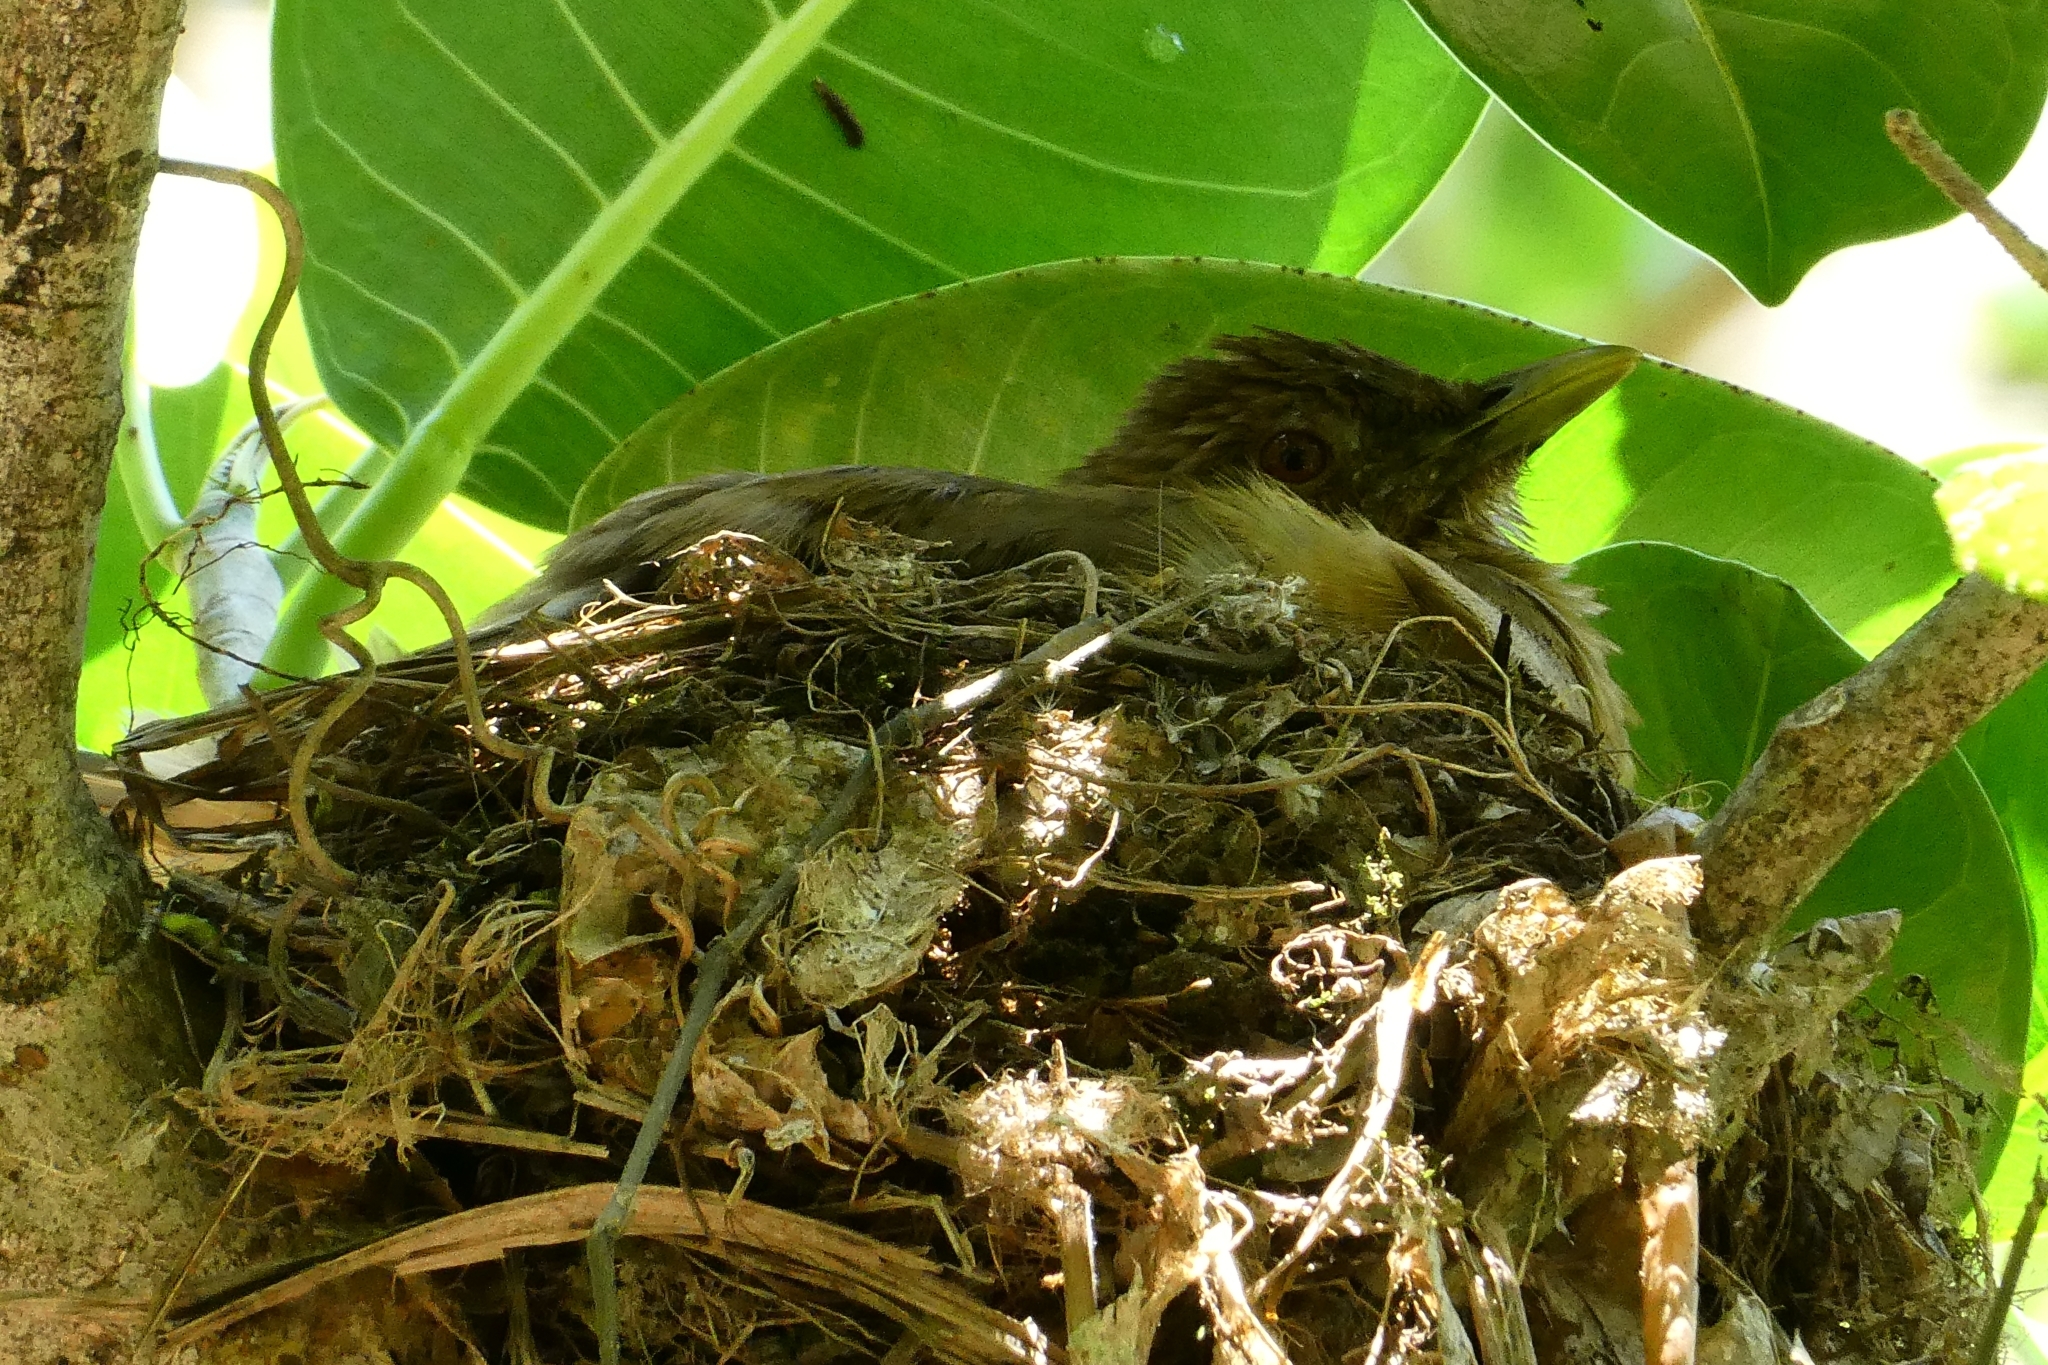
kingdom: Animalia
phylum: Chordata
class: Aves
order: Passeriformes
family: Turdidae
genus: Turdus
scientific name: Turdus grayi
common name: Clay-colored thrush
